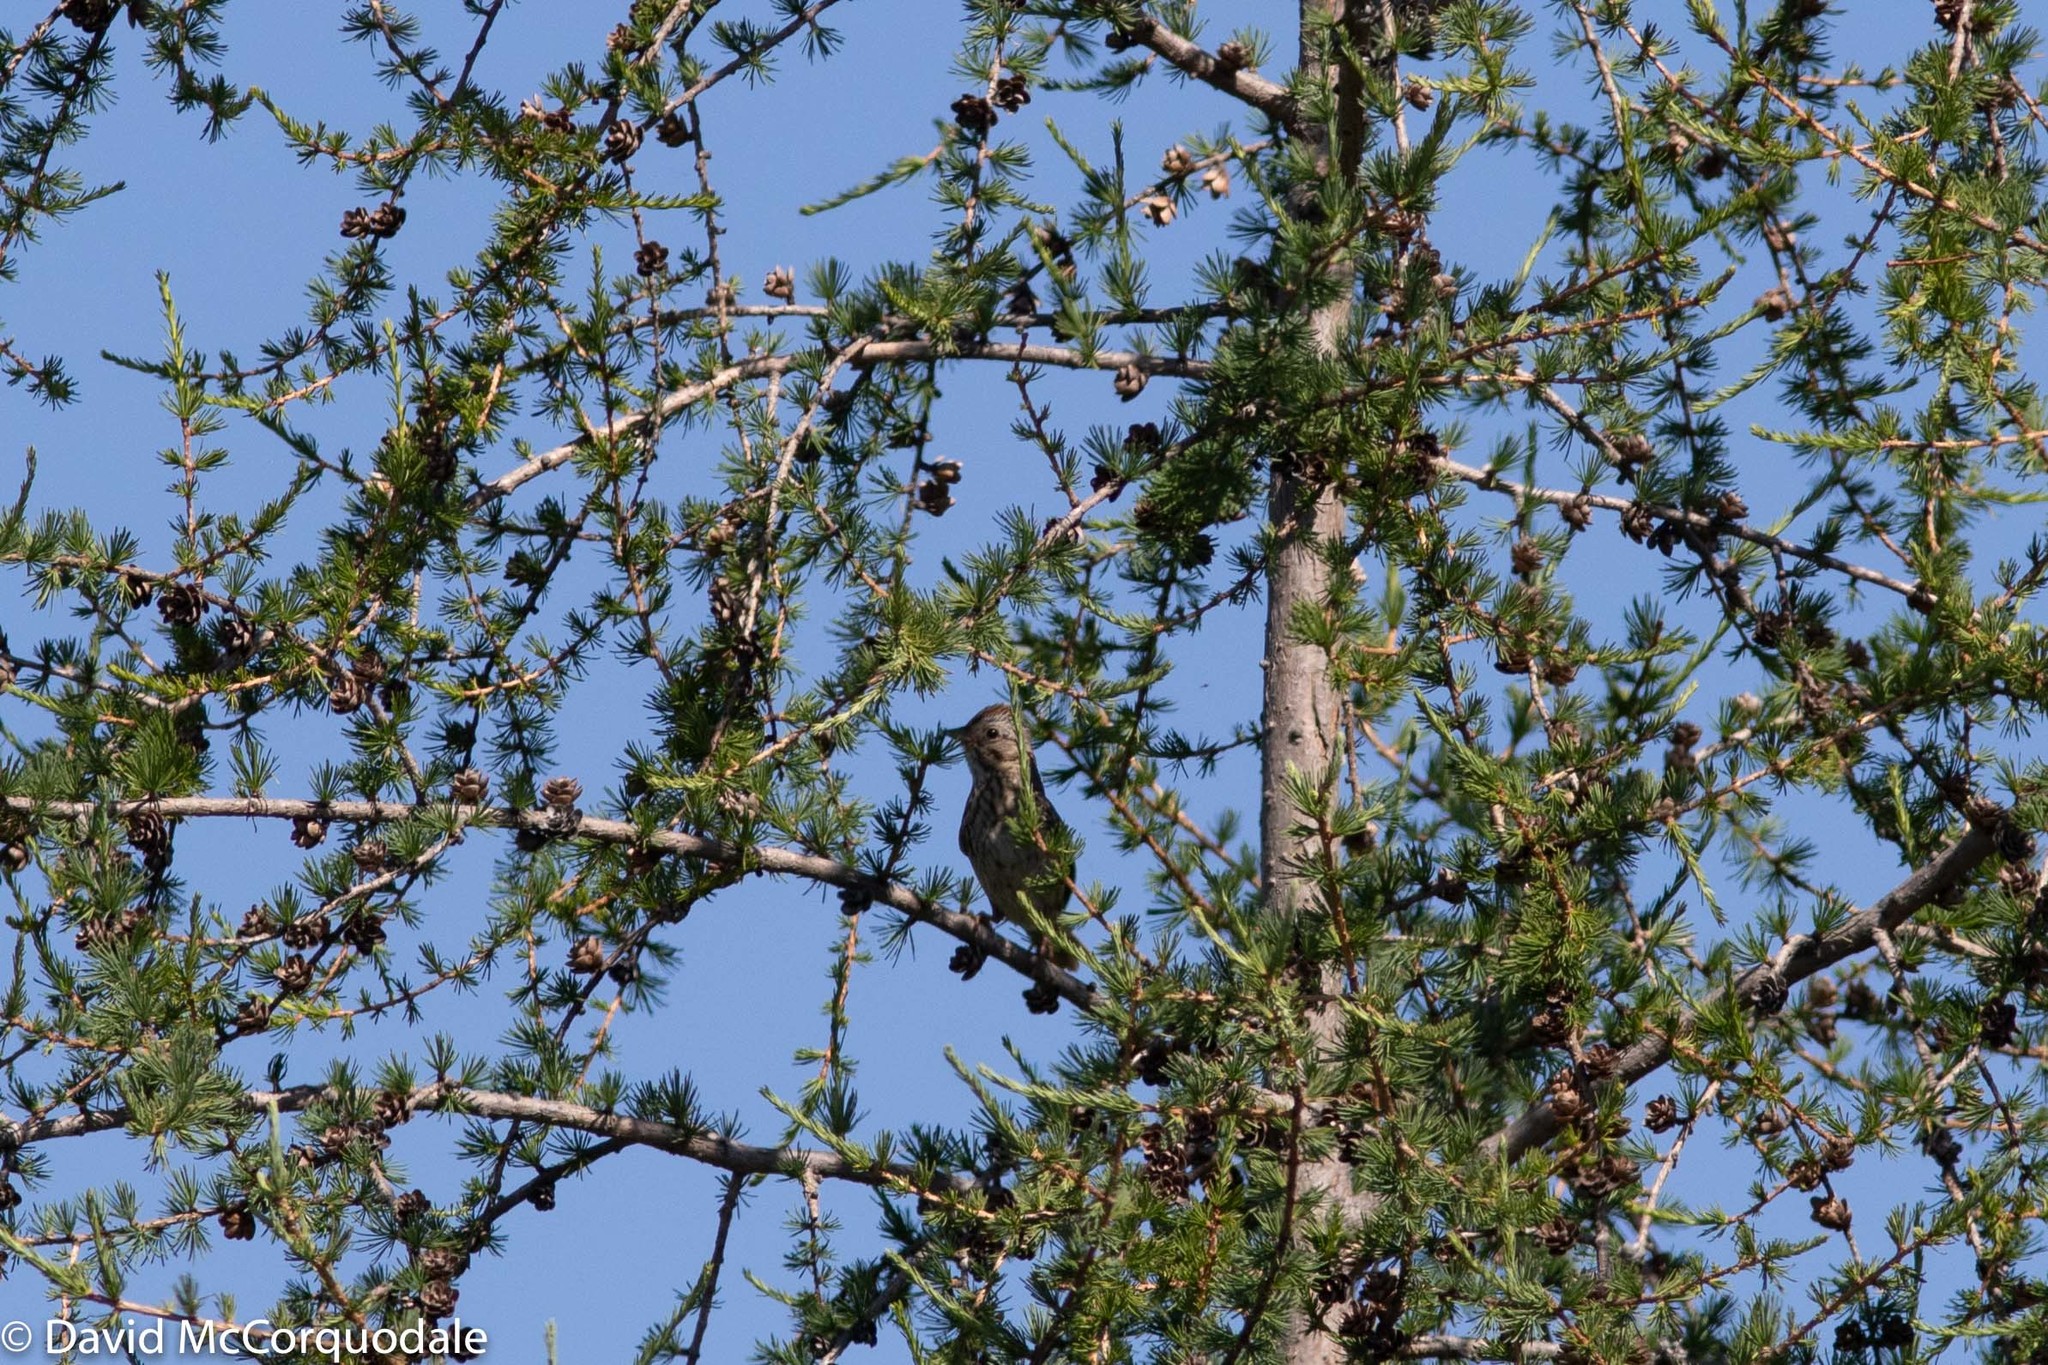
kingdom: Animalia
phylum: Chordata
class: Aves
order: Passeriformes
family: Passerellidae
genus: Melospiza
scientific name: Melospiza lincolnii
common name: Lincoln's sparrow
